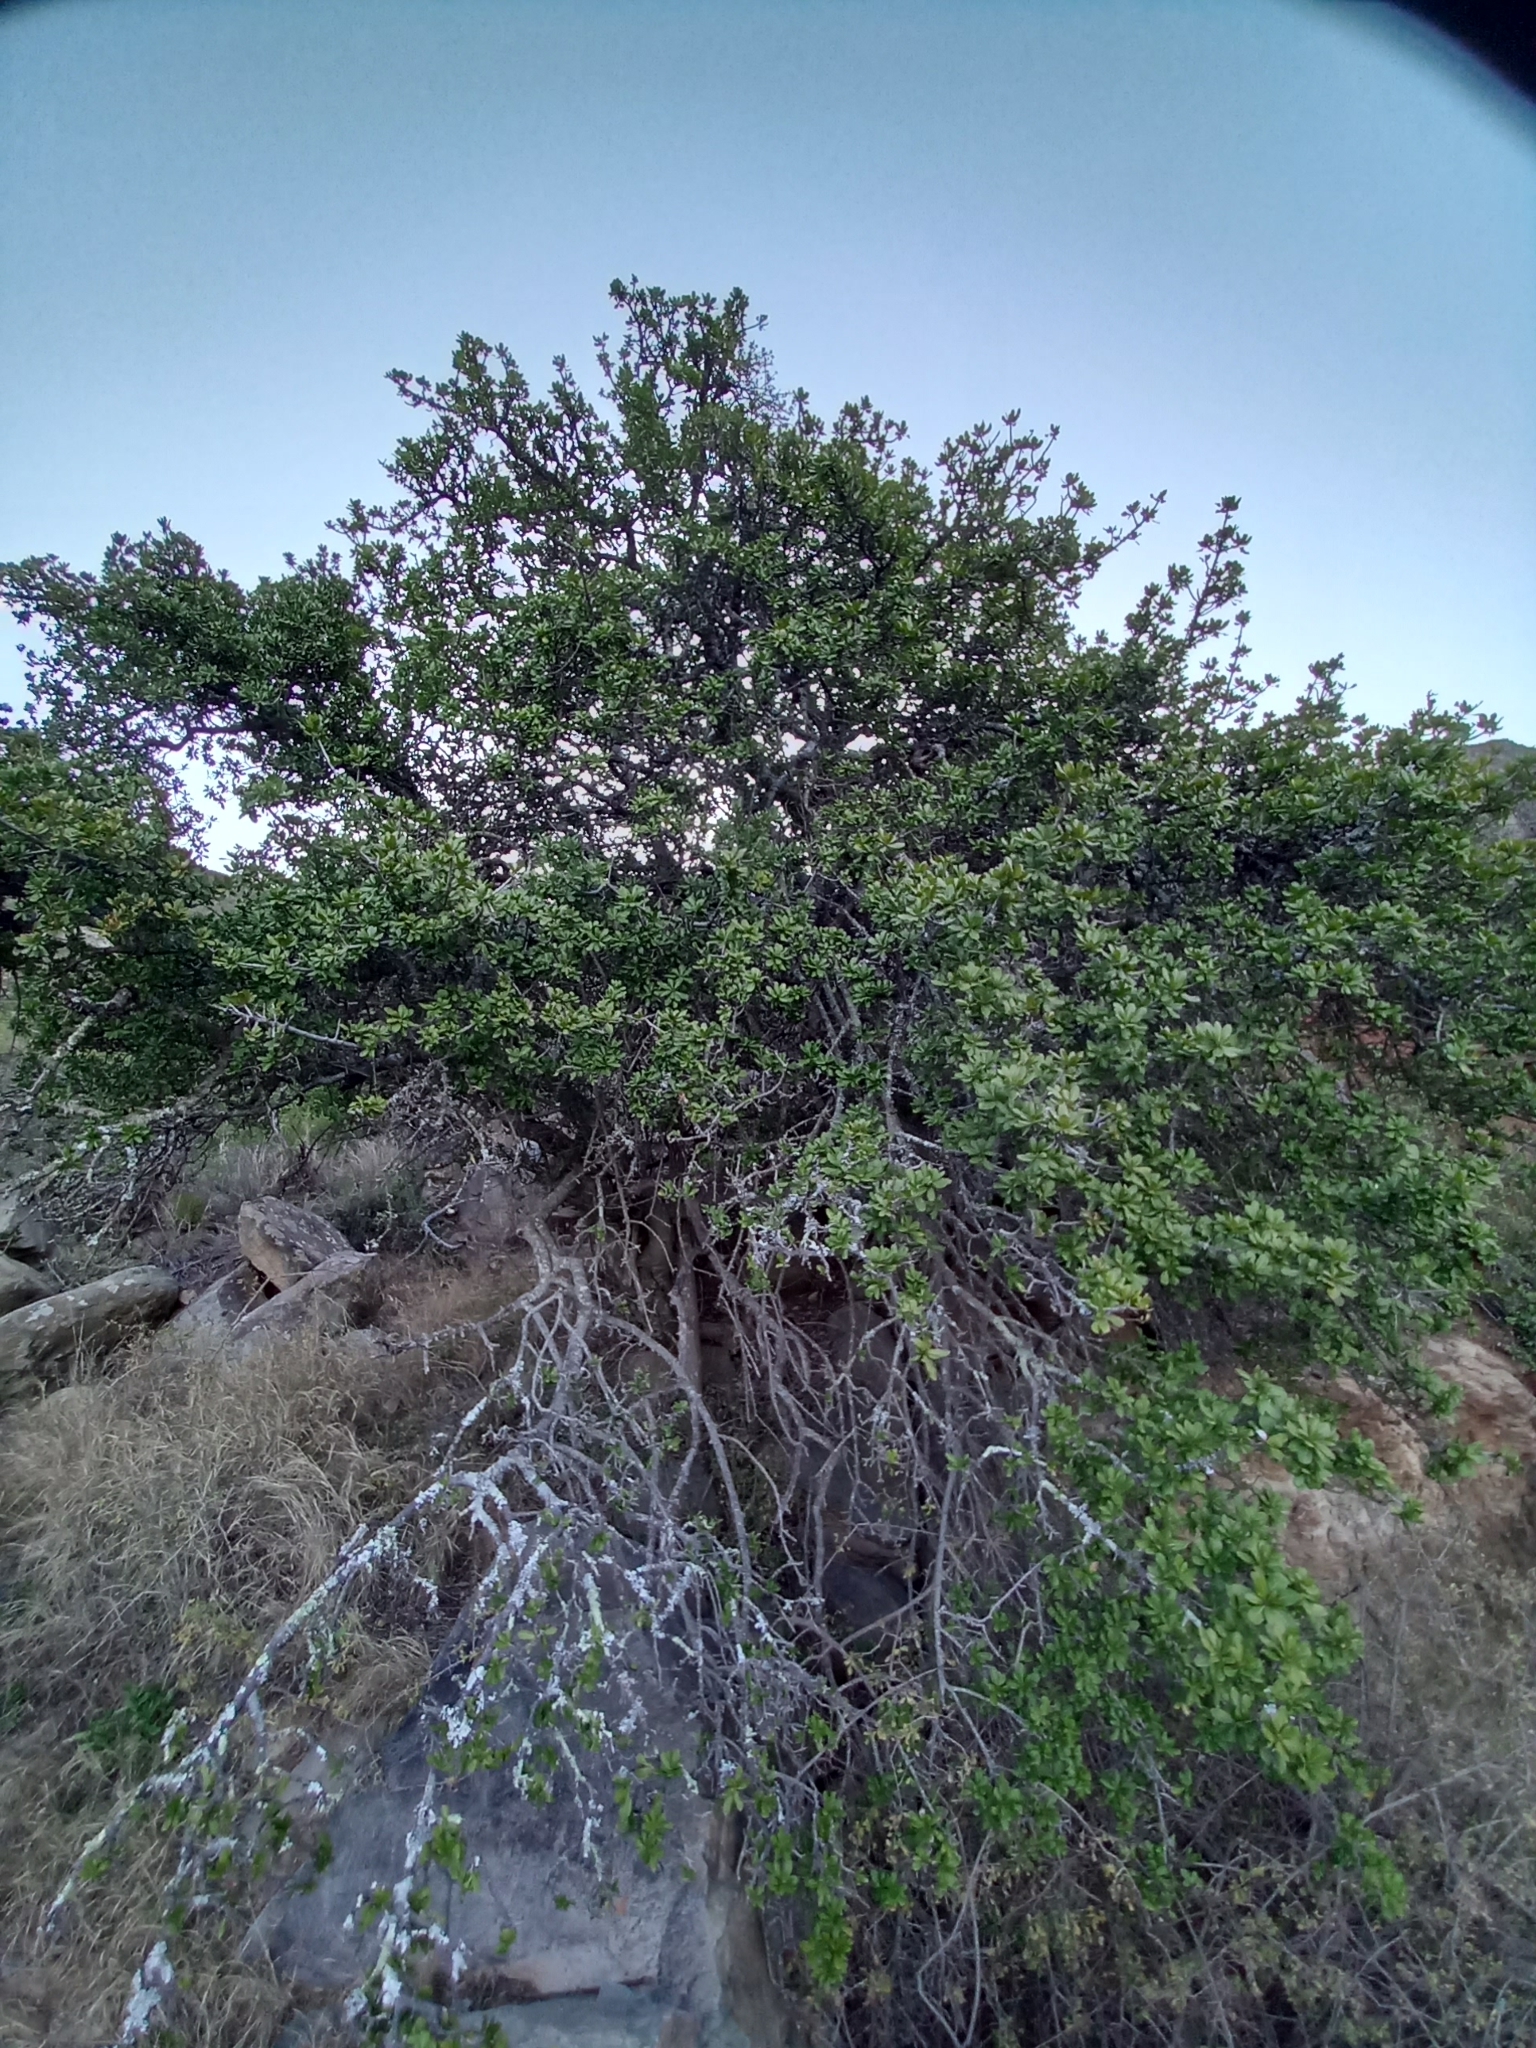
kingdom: Plantae
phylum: Tracheophyta
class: Magnoliopsida
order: Sapindales
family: Sapindaceae
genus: Pappea
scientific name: Pappea capensis
